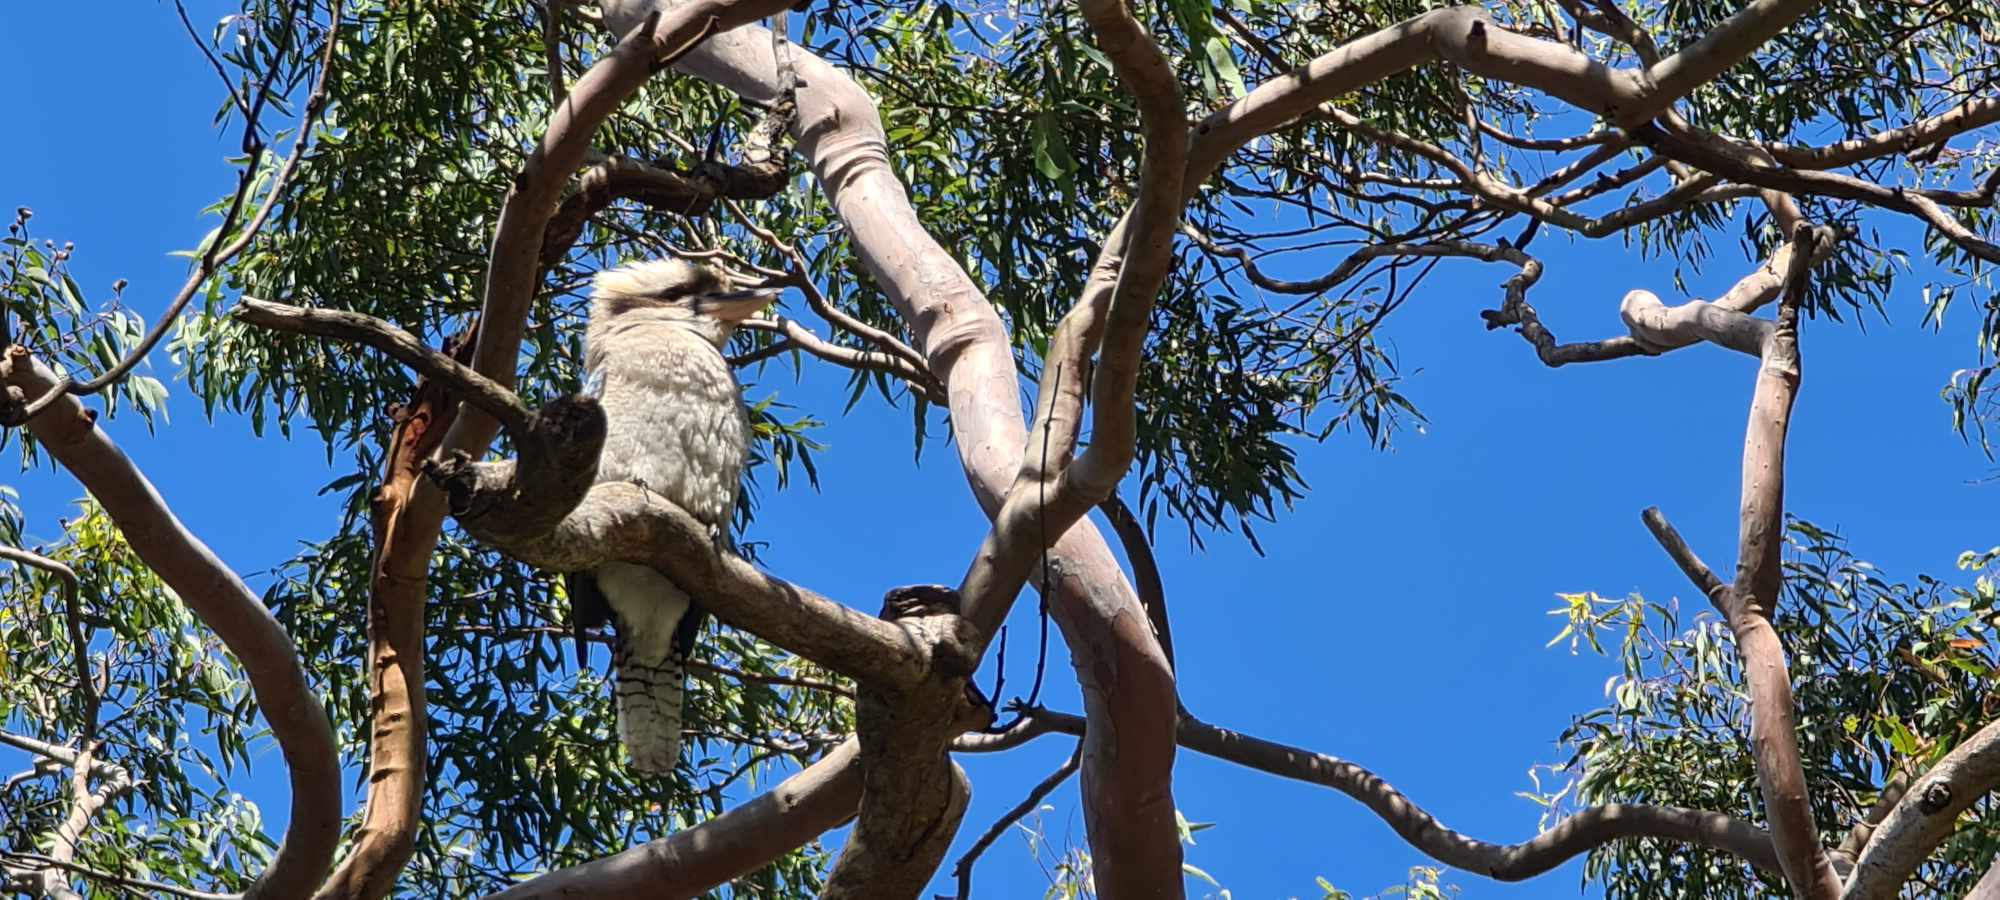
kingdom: Animalia
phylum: Chordata
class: Aves
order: Coraciiformes
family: Alcedinidae
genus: Dacelo
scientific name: Dacelo novaeguineae
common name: Laughing kookaburra
